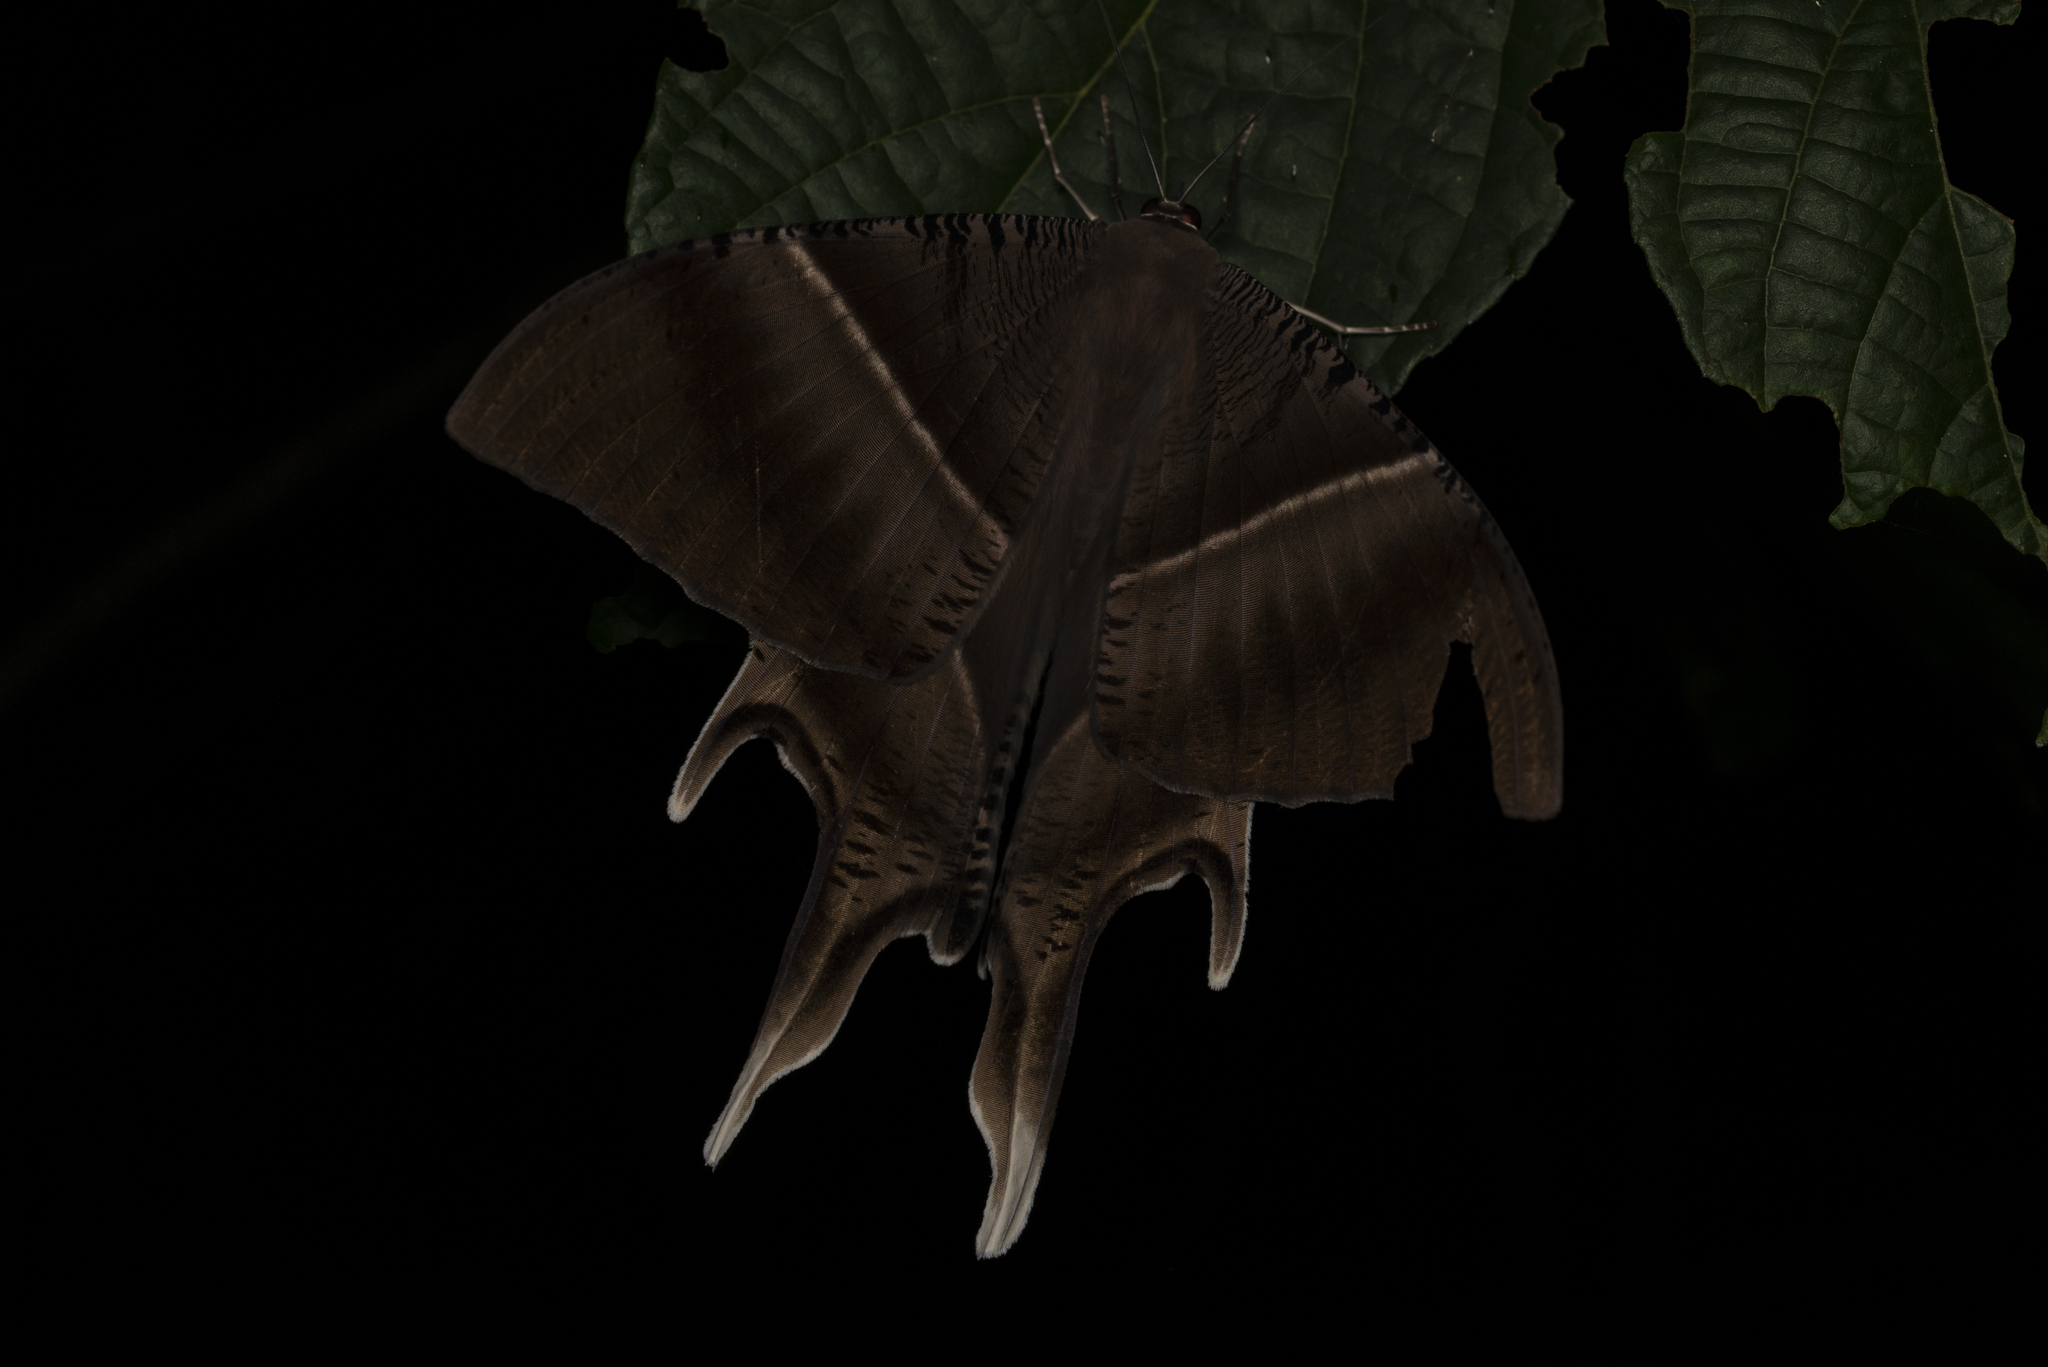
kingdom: Animalia
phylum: Arthropoda
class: Insecta
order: Lepidoptera
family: Uraniidae
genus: Lyssa
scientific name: Lyssa zampa
